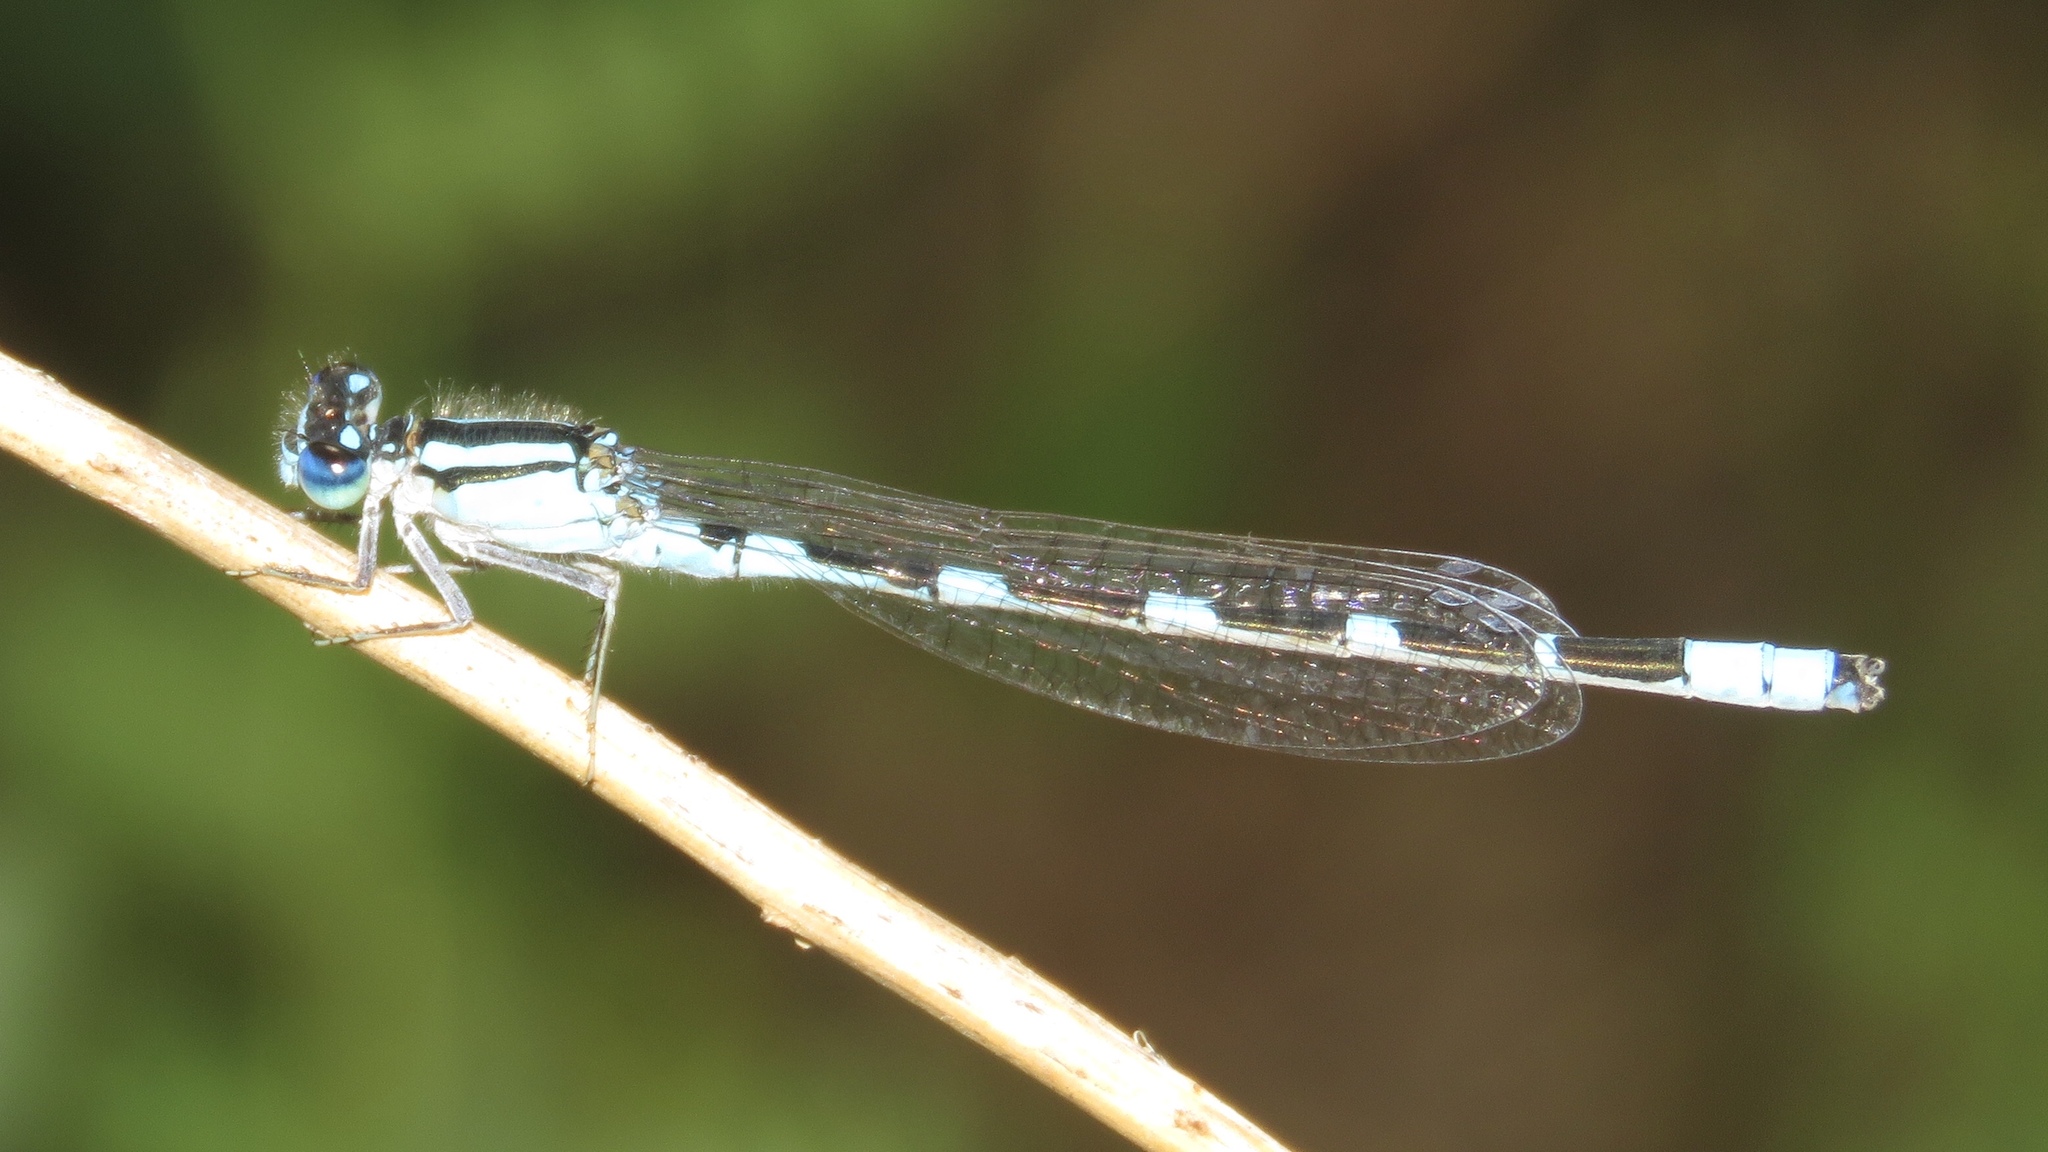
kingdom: Animalia
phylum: Arthropoda
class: Insecta
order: Odonata
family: Coenagrionidae
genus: Enallagma
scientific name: Enallagma carunculatum
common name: Tule bluet
